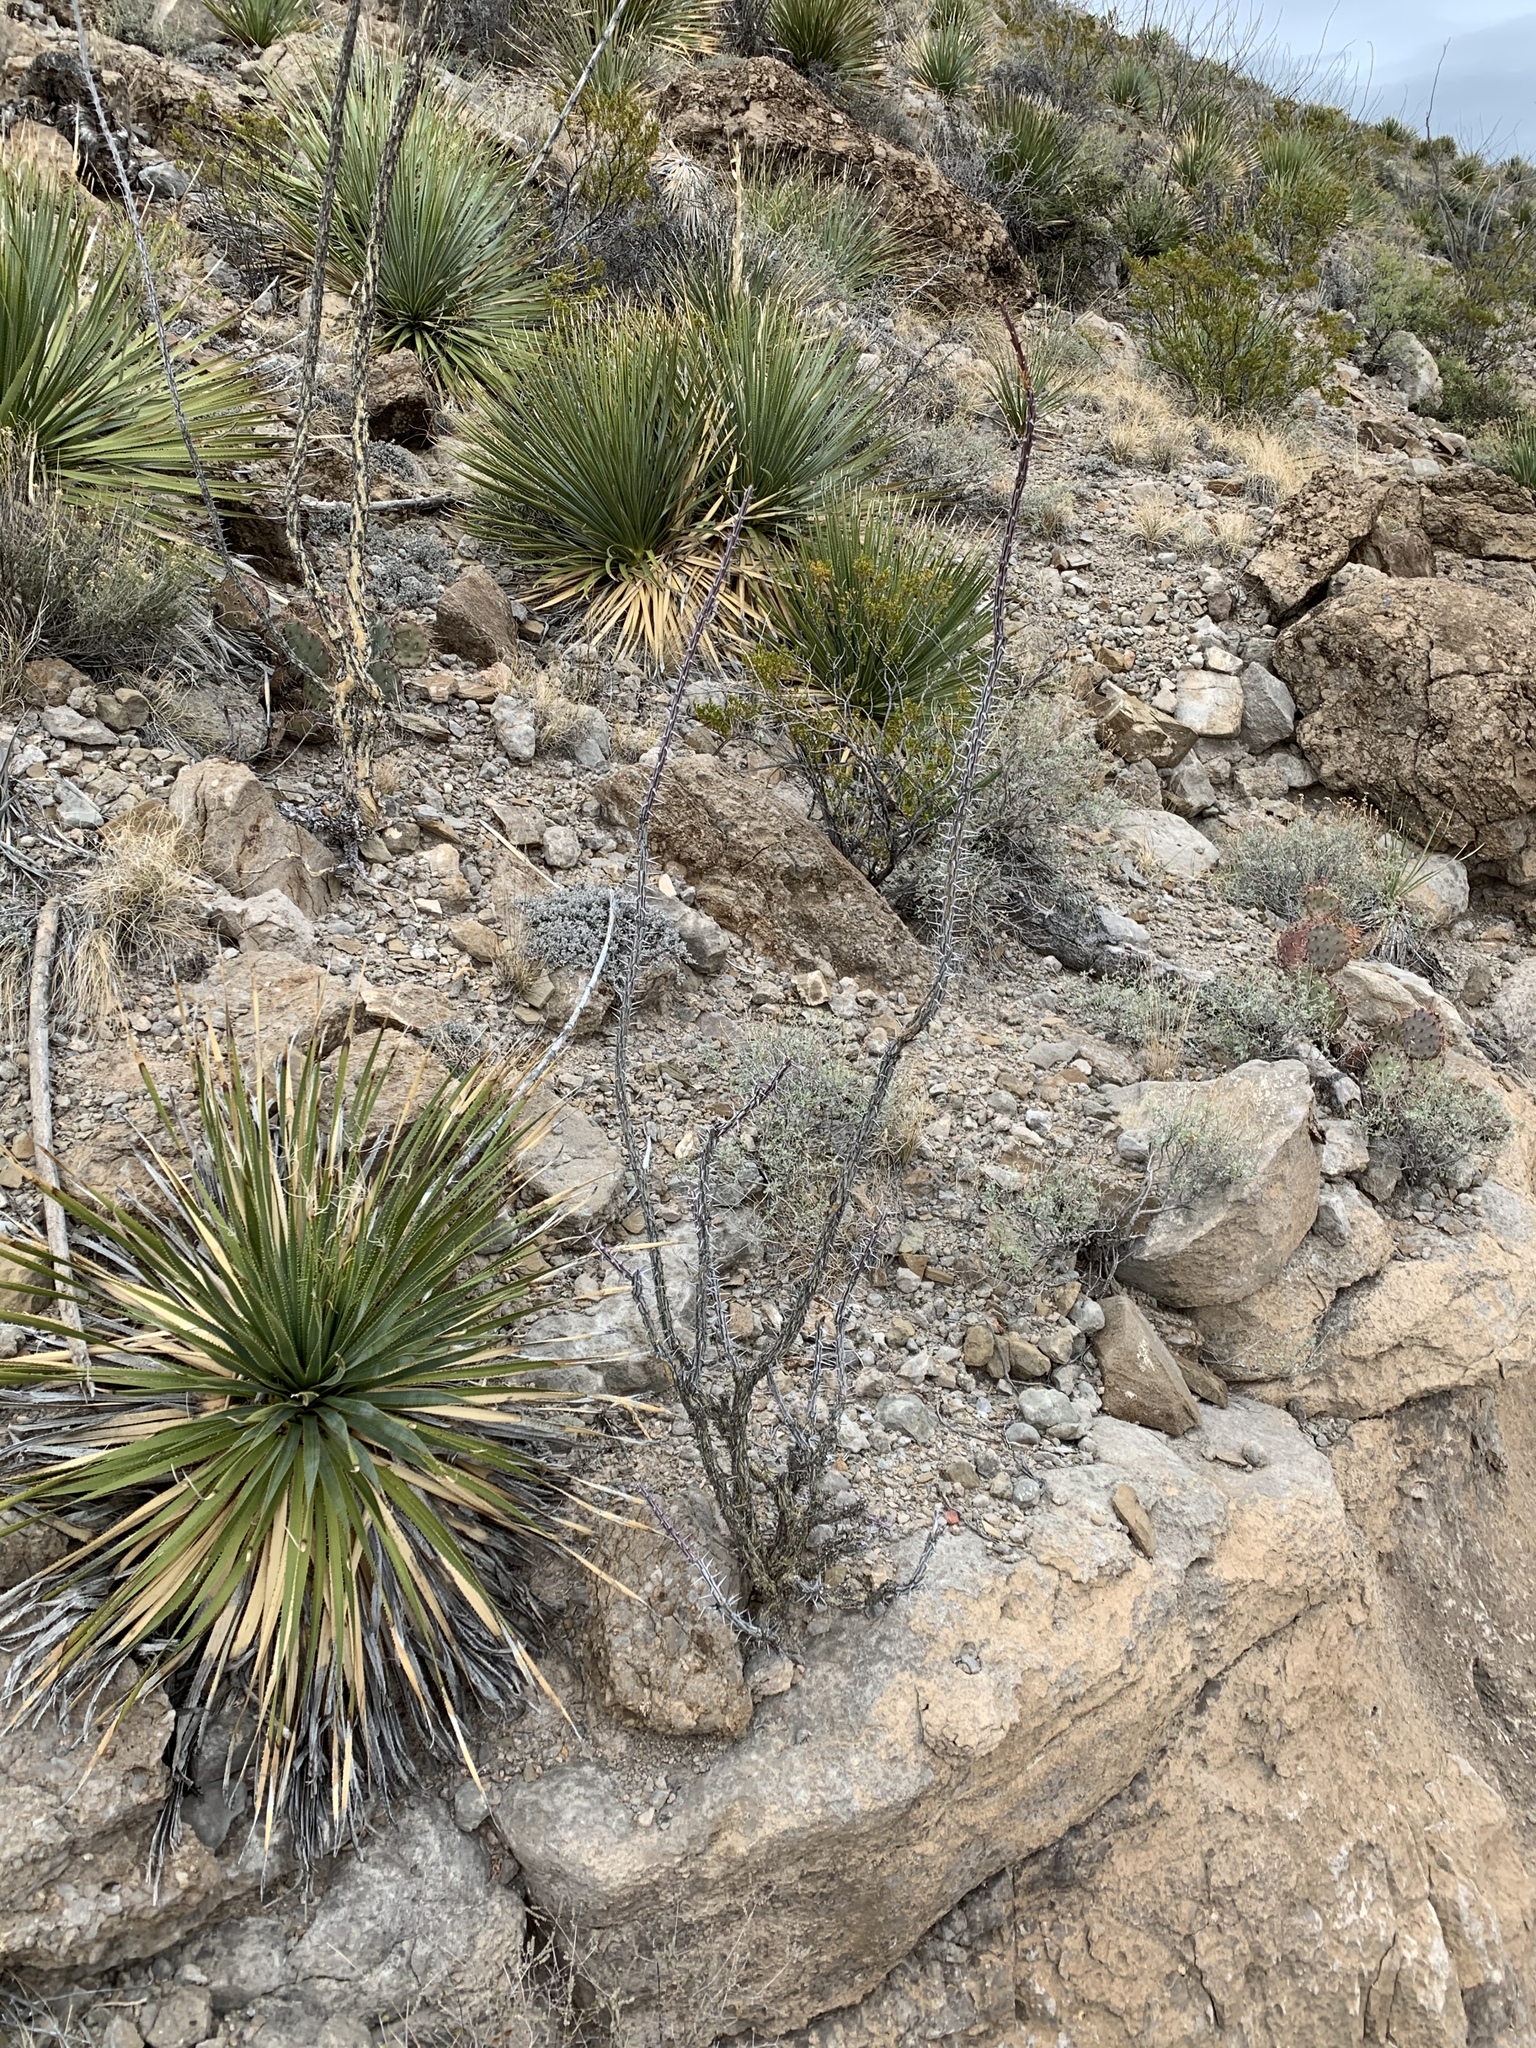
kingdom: Plantae
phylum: Tracheophyta
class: Magnoliopsida
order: Ericales
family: Fouquieriaceae
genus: Fouquieria
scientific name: Fouquieria splendens
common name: Vine-cactus
